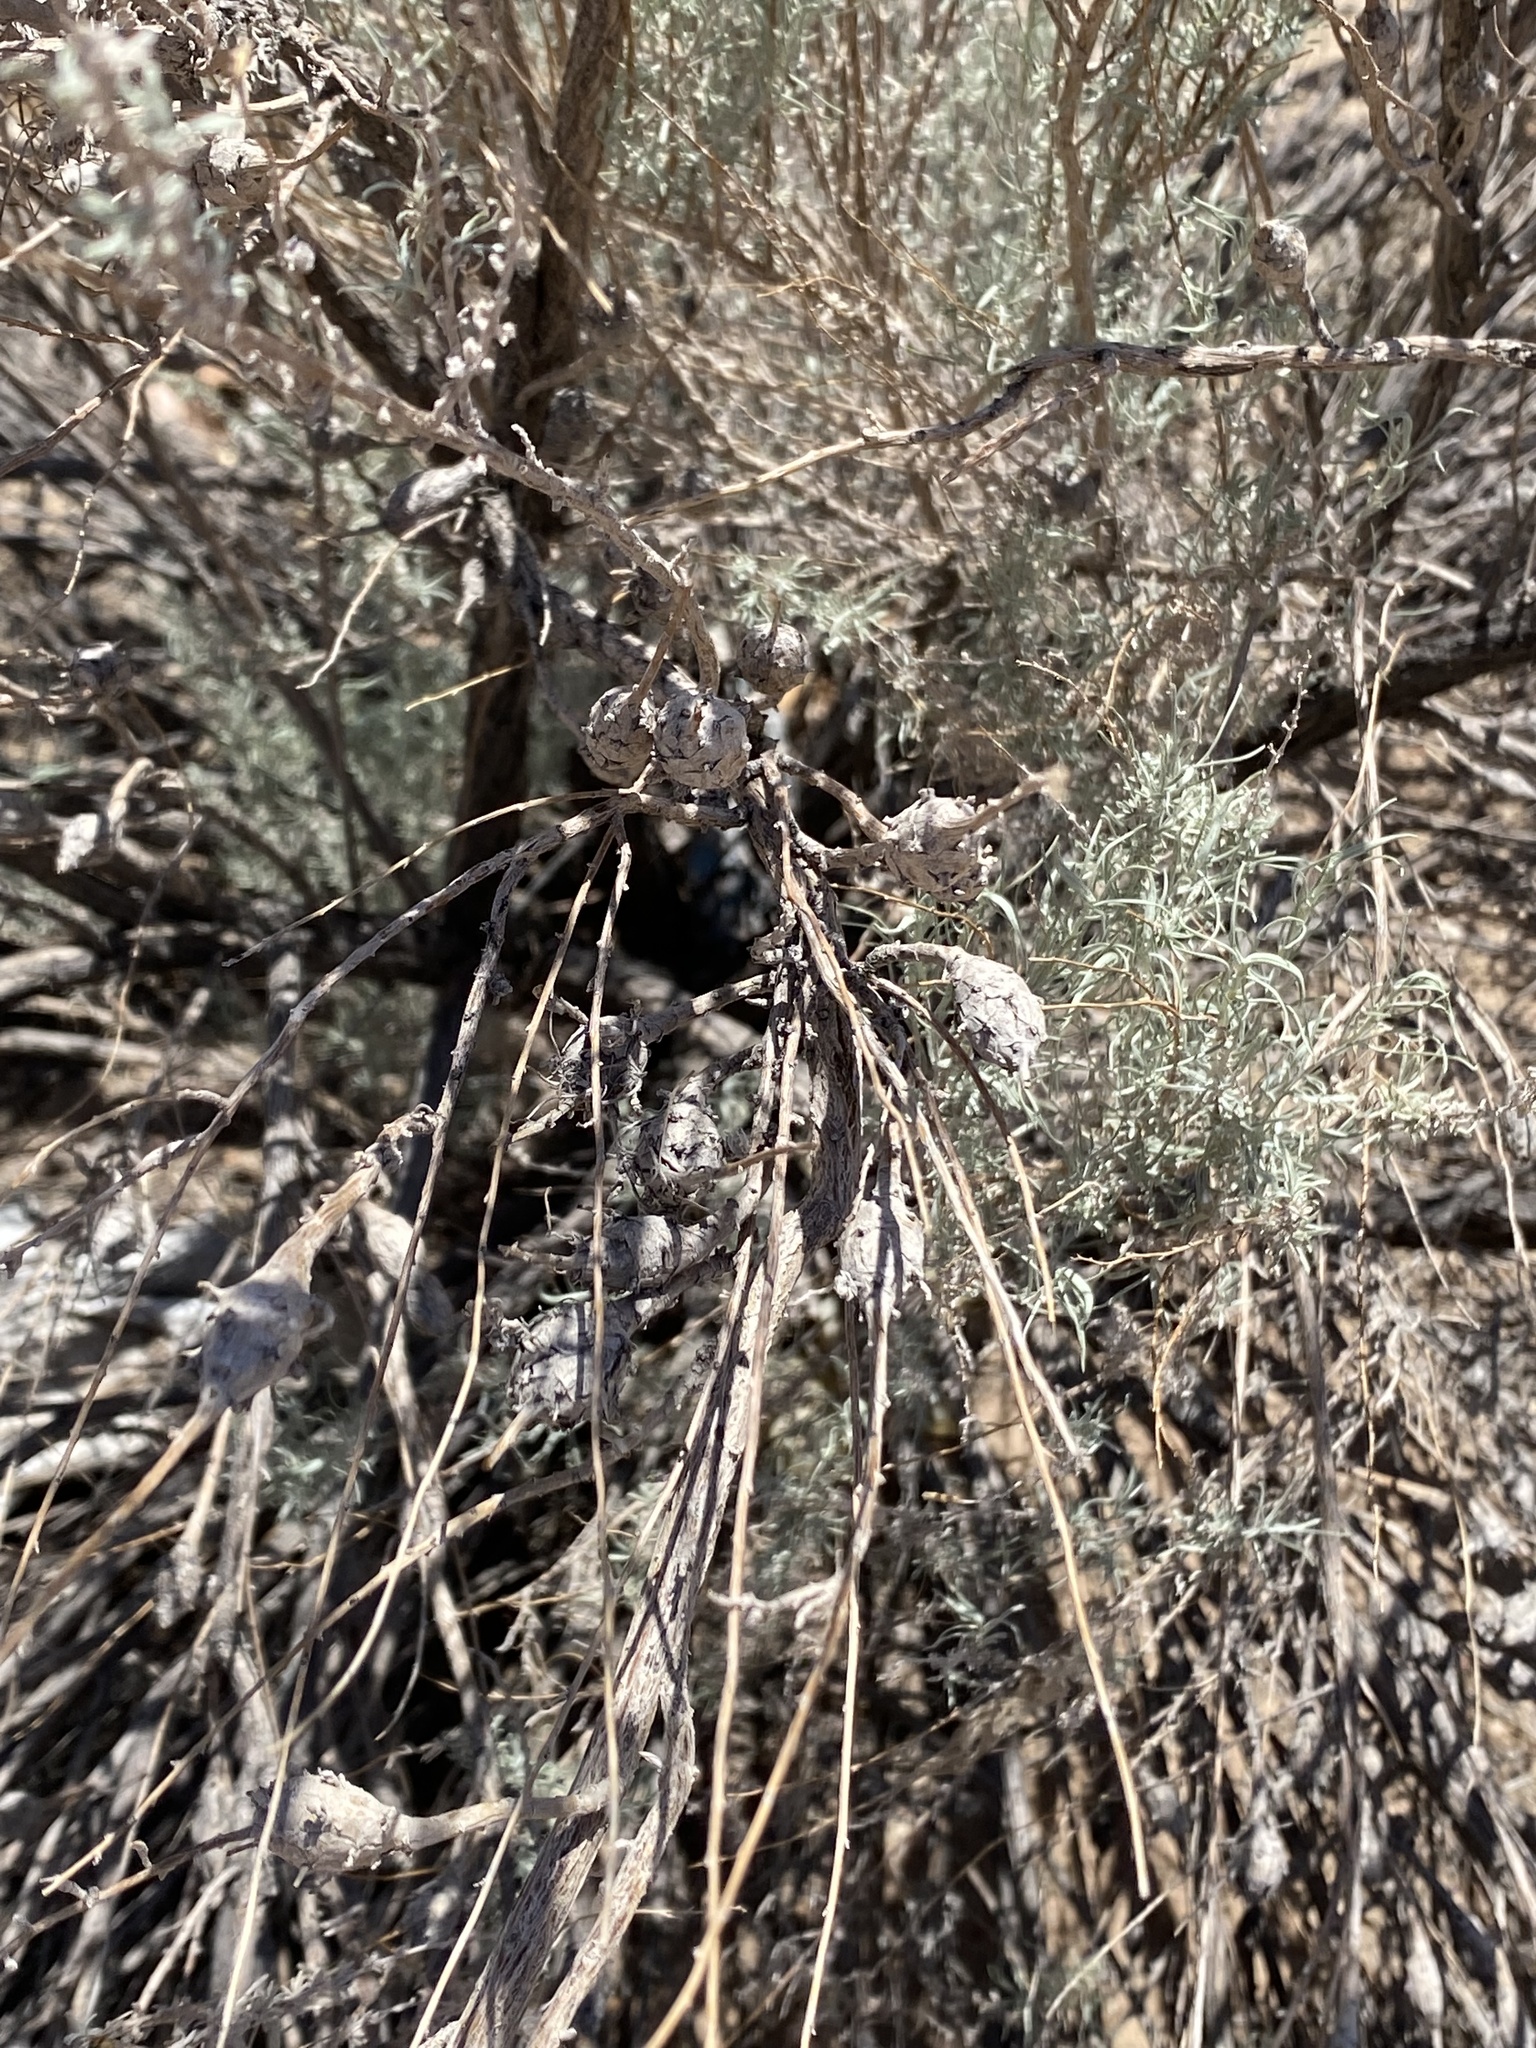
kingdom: Animalia
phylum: Arthropoda
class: Insecta
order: Diptera
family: Tephritidae
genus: Eutreta
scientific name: Eutreta diana
